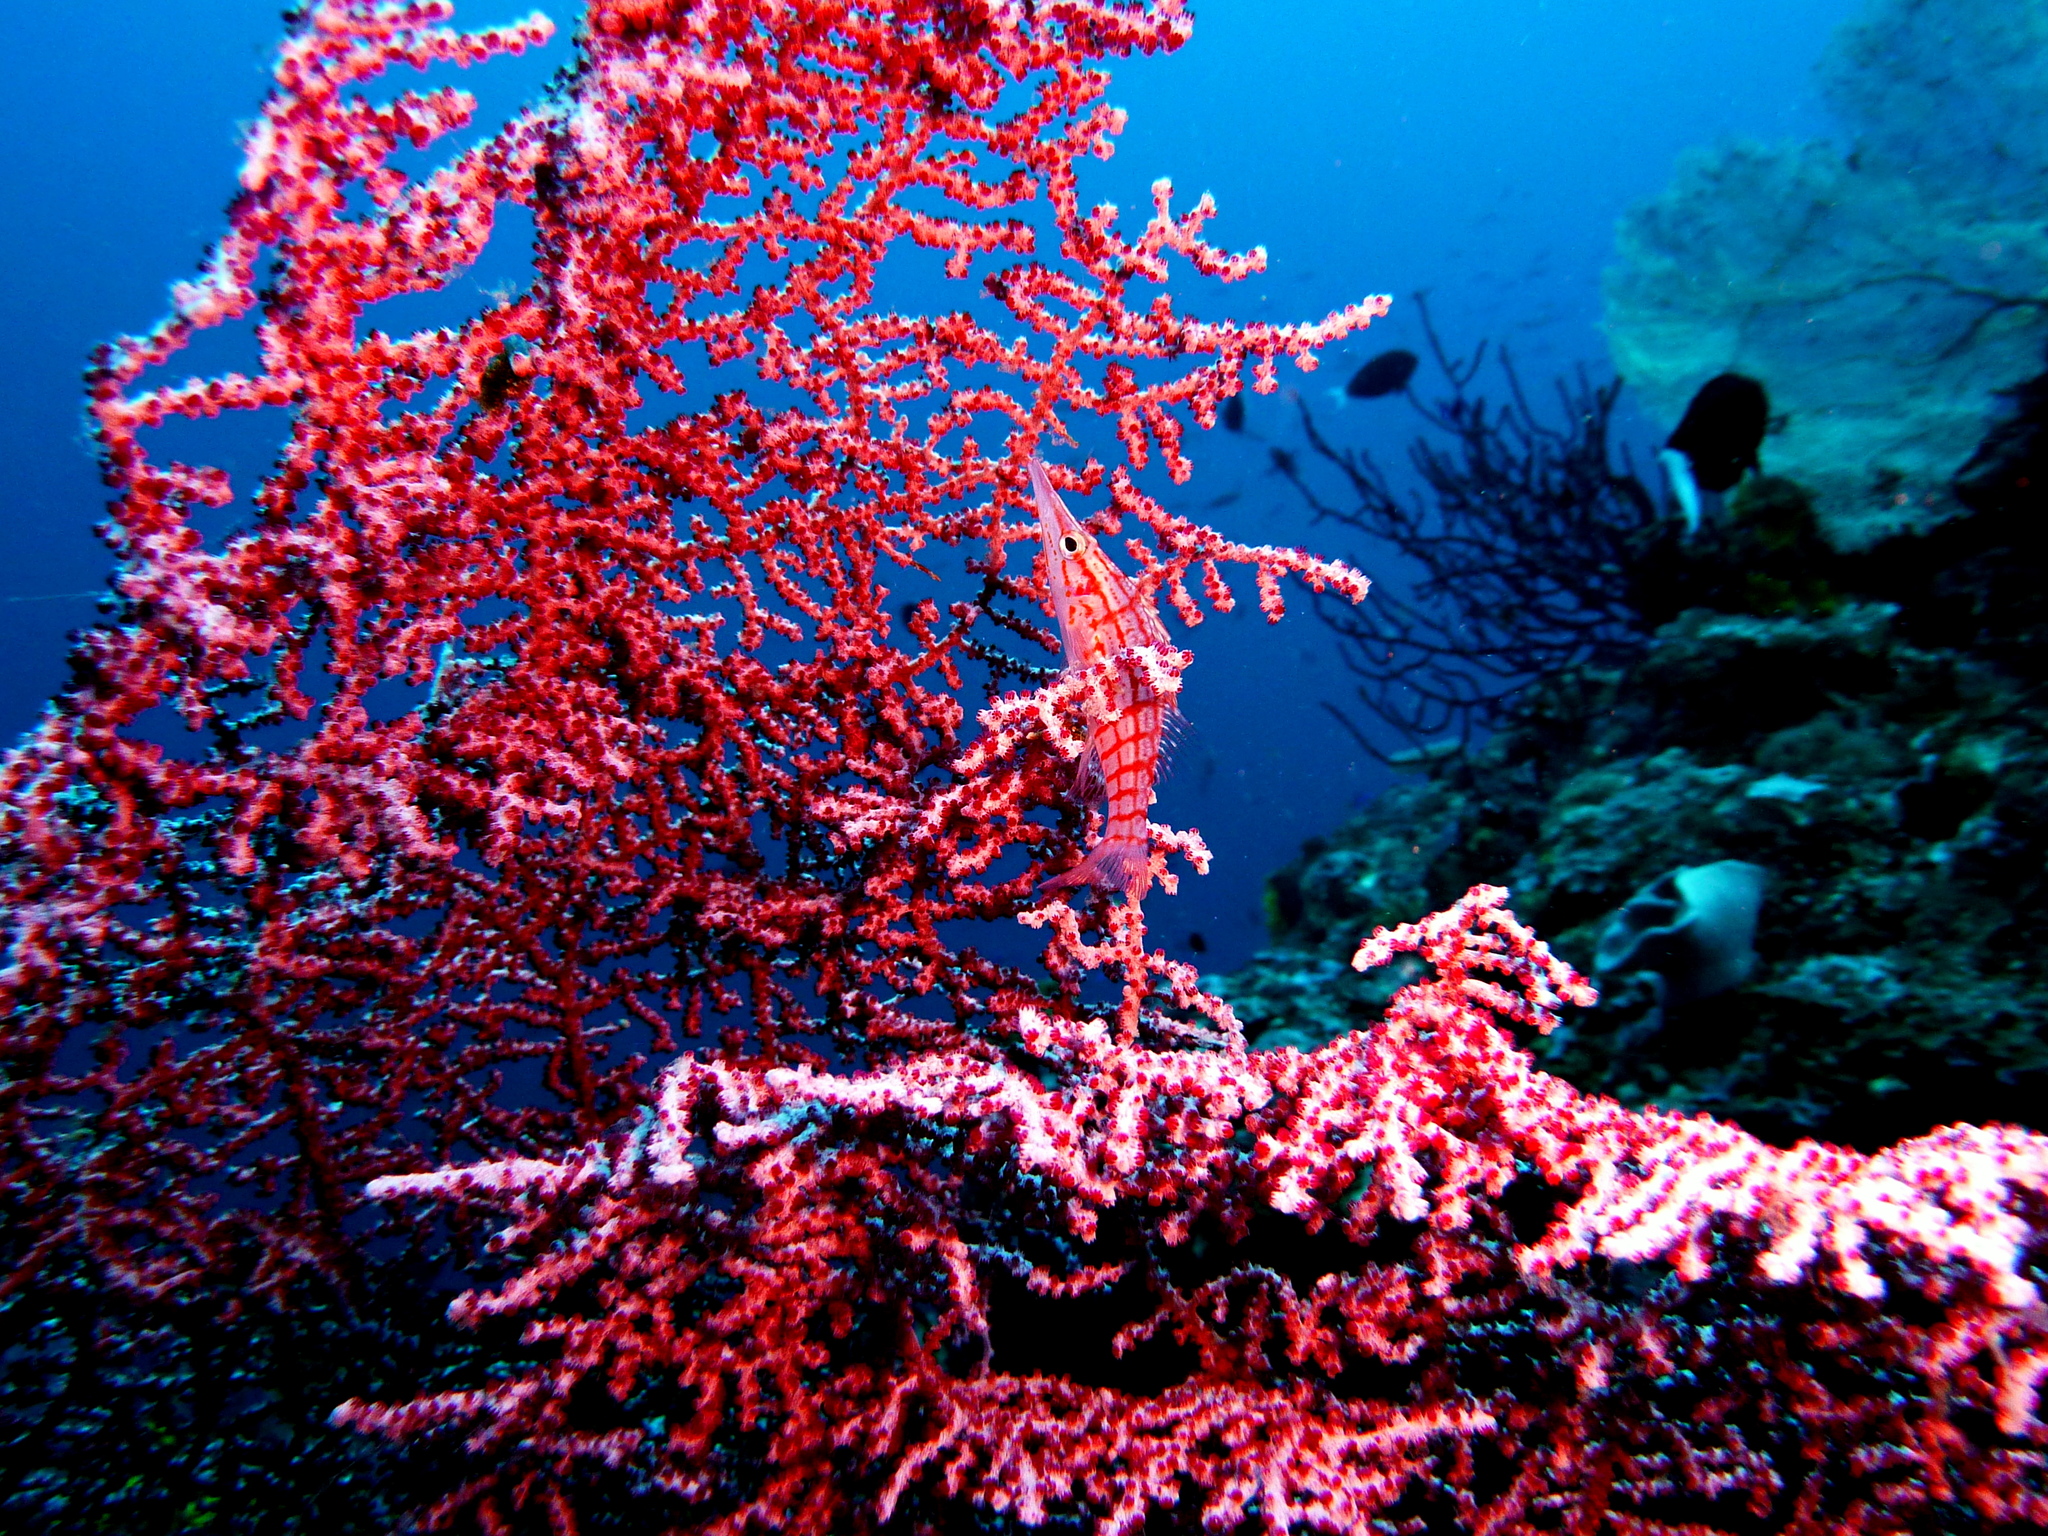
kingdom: Animalia
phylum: Chordata
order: Perciformes
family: Cirrhitidae
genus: Oxycirrhites
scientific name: Oxycirrhites typus
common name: Longnose hawkfish
